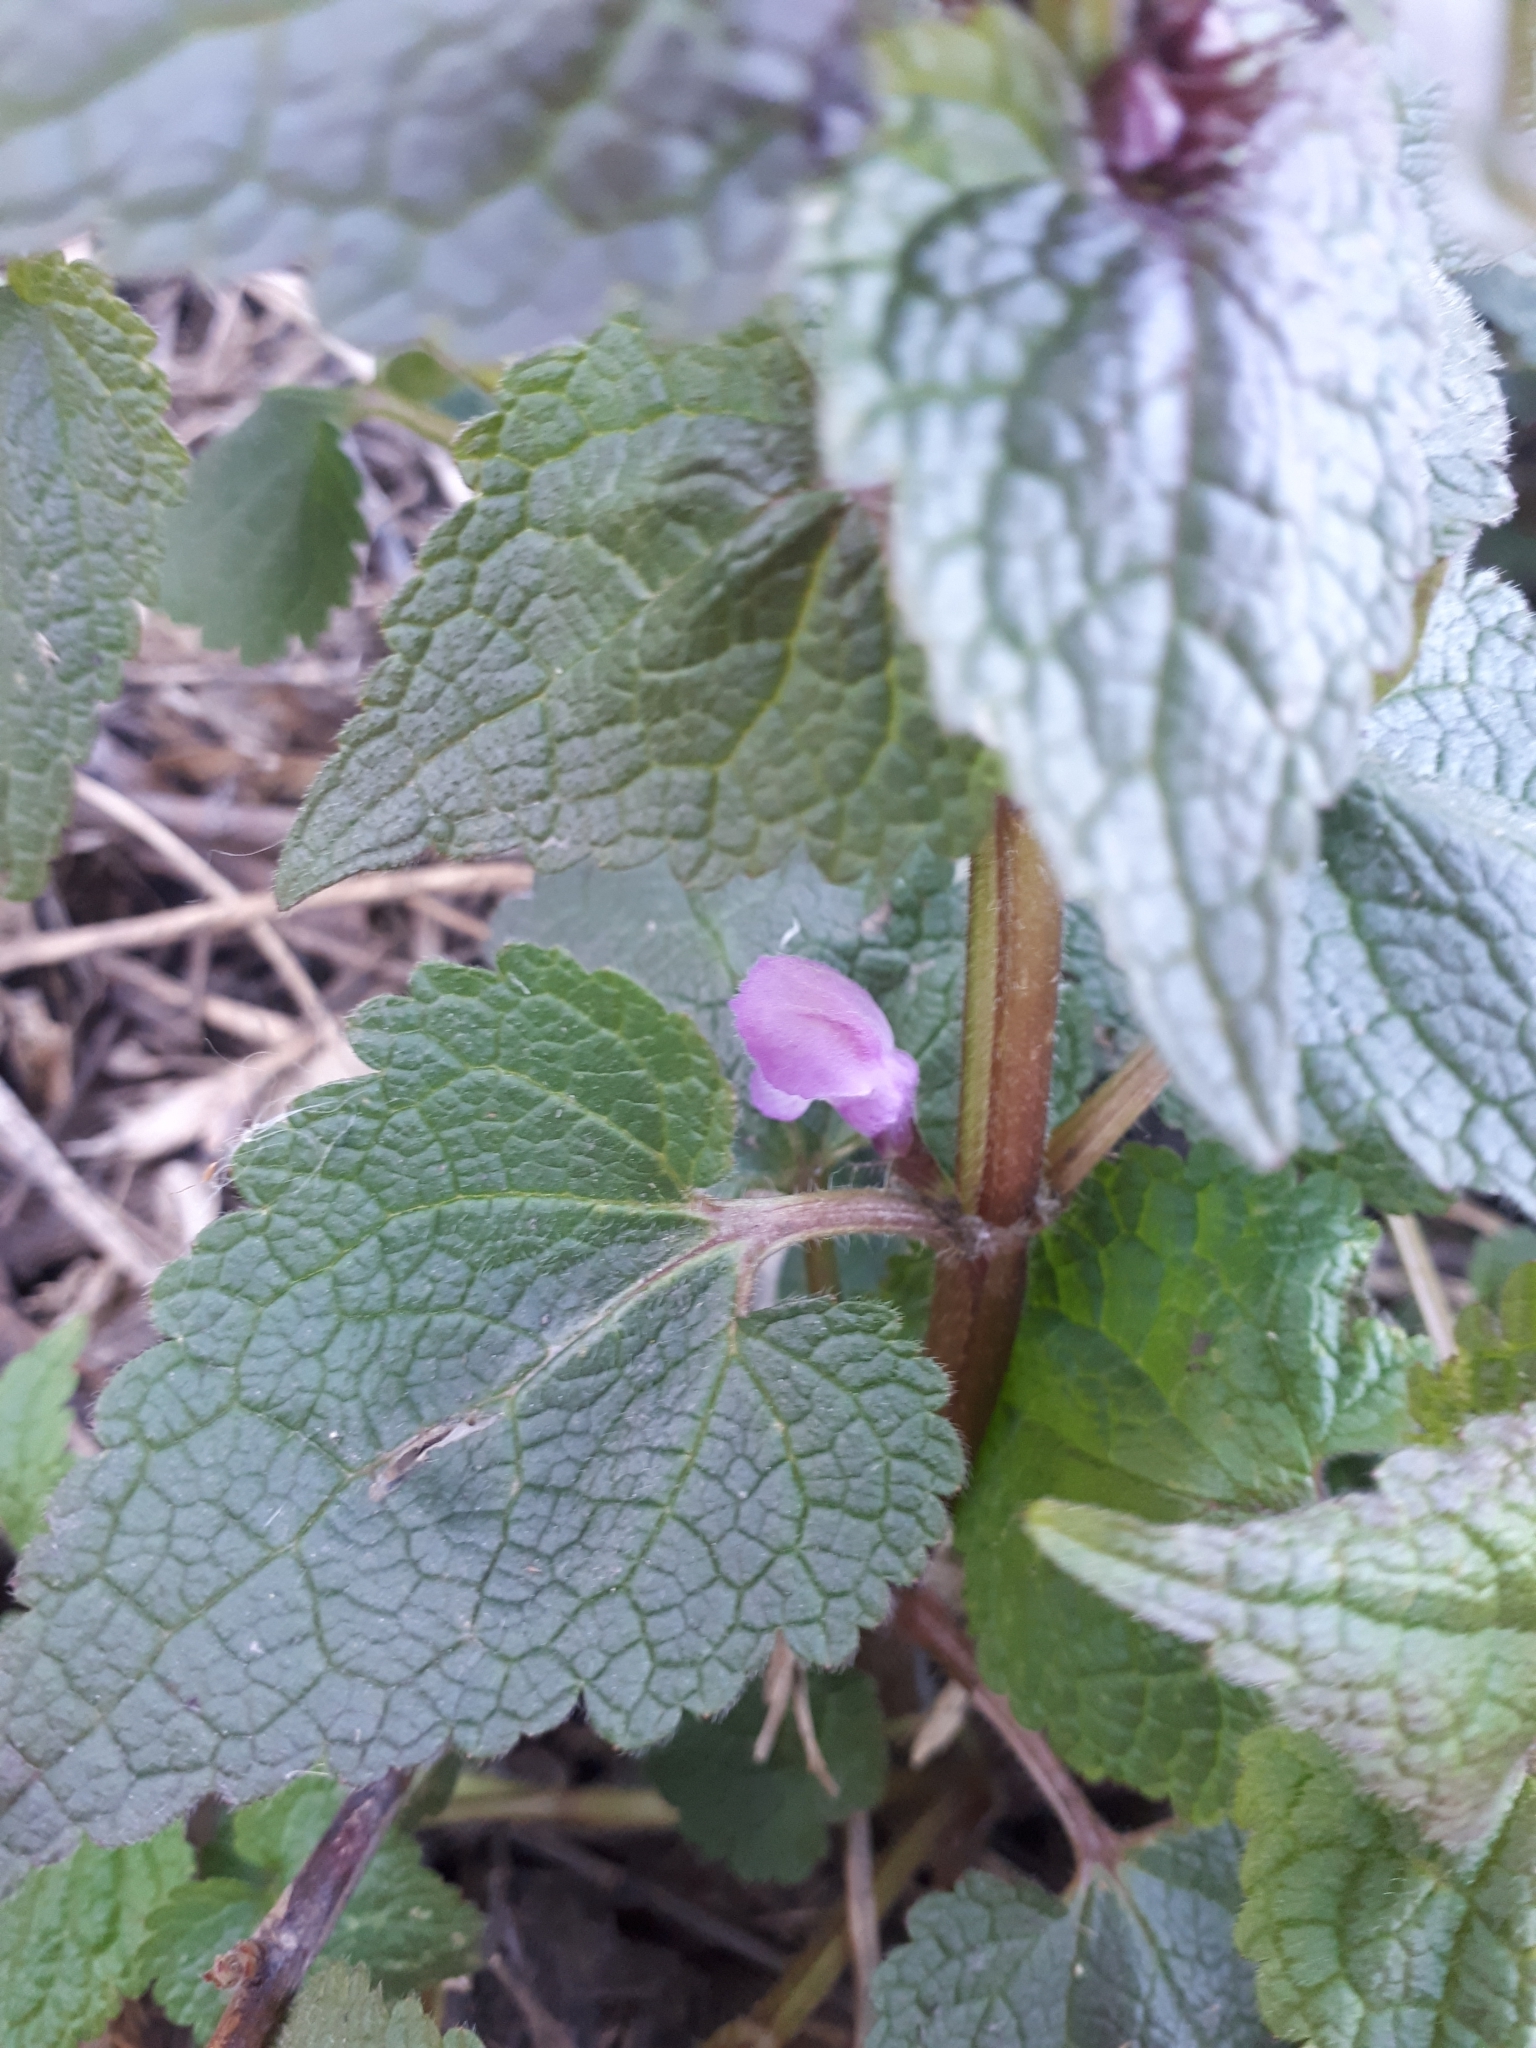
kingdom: Plantae
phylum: Tracheophyta
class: Magnoliopsida
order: Lamiales
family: Lamiaceae
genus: Lamium
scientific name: Lamium maculatum
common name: Spotted dead-nettle
